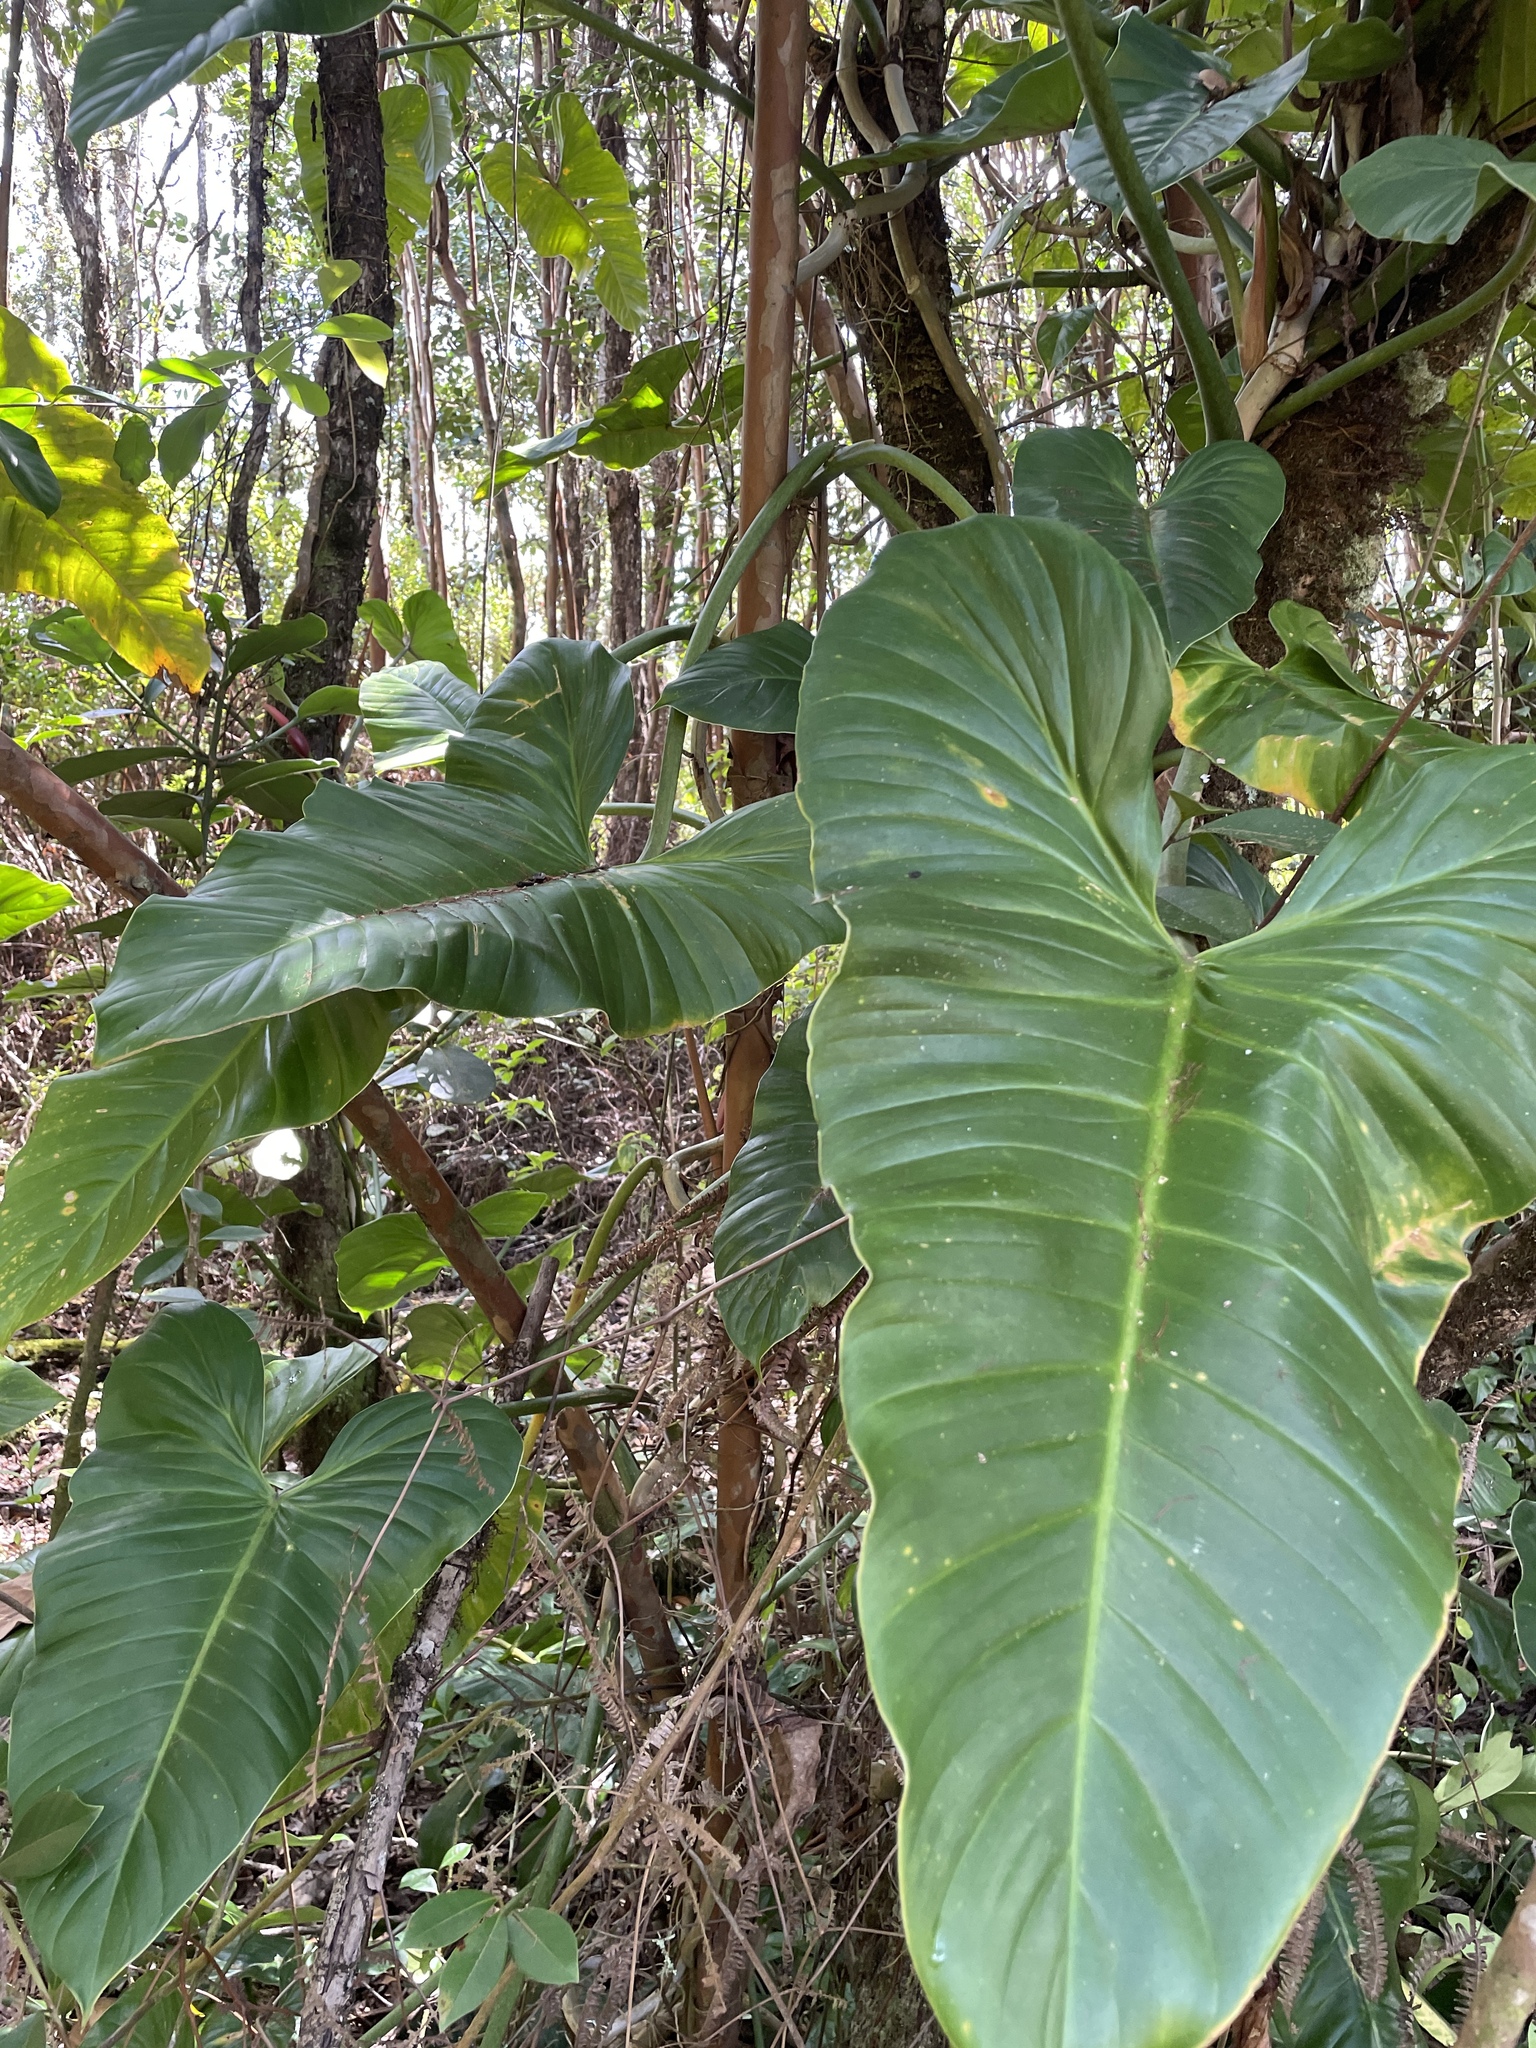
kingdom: Plantae
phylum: Tracheophyta
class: Liliopsida
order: Alismatales
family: Araceae
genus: Philodendron
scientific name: Philodendron subhastatum
